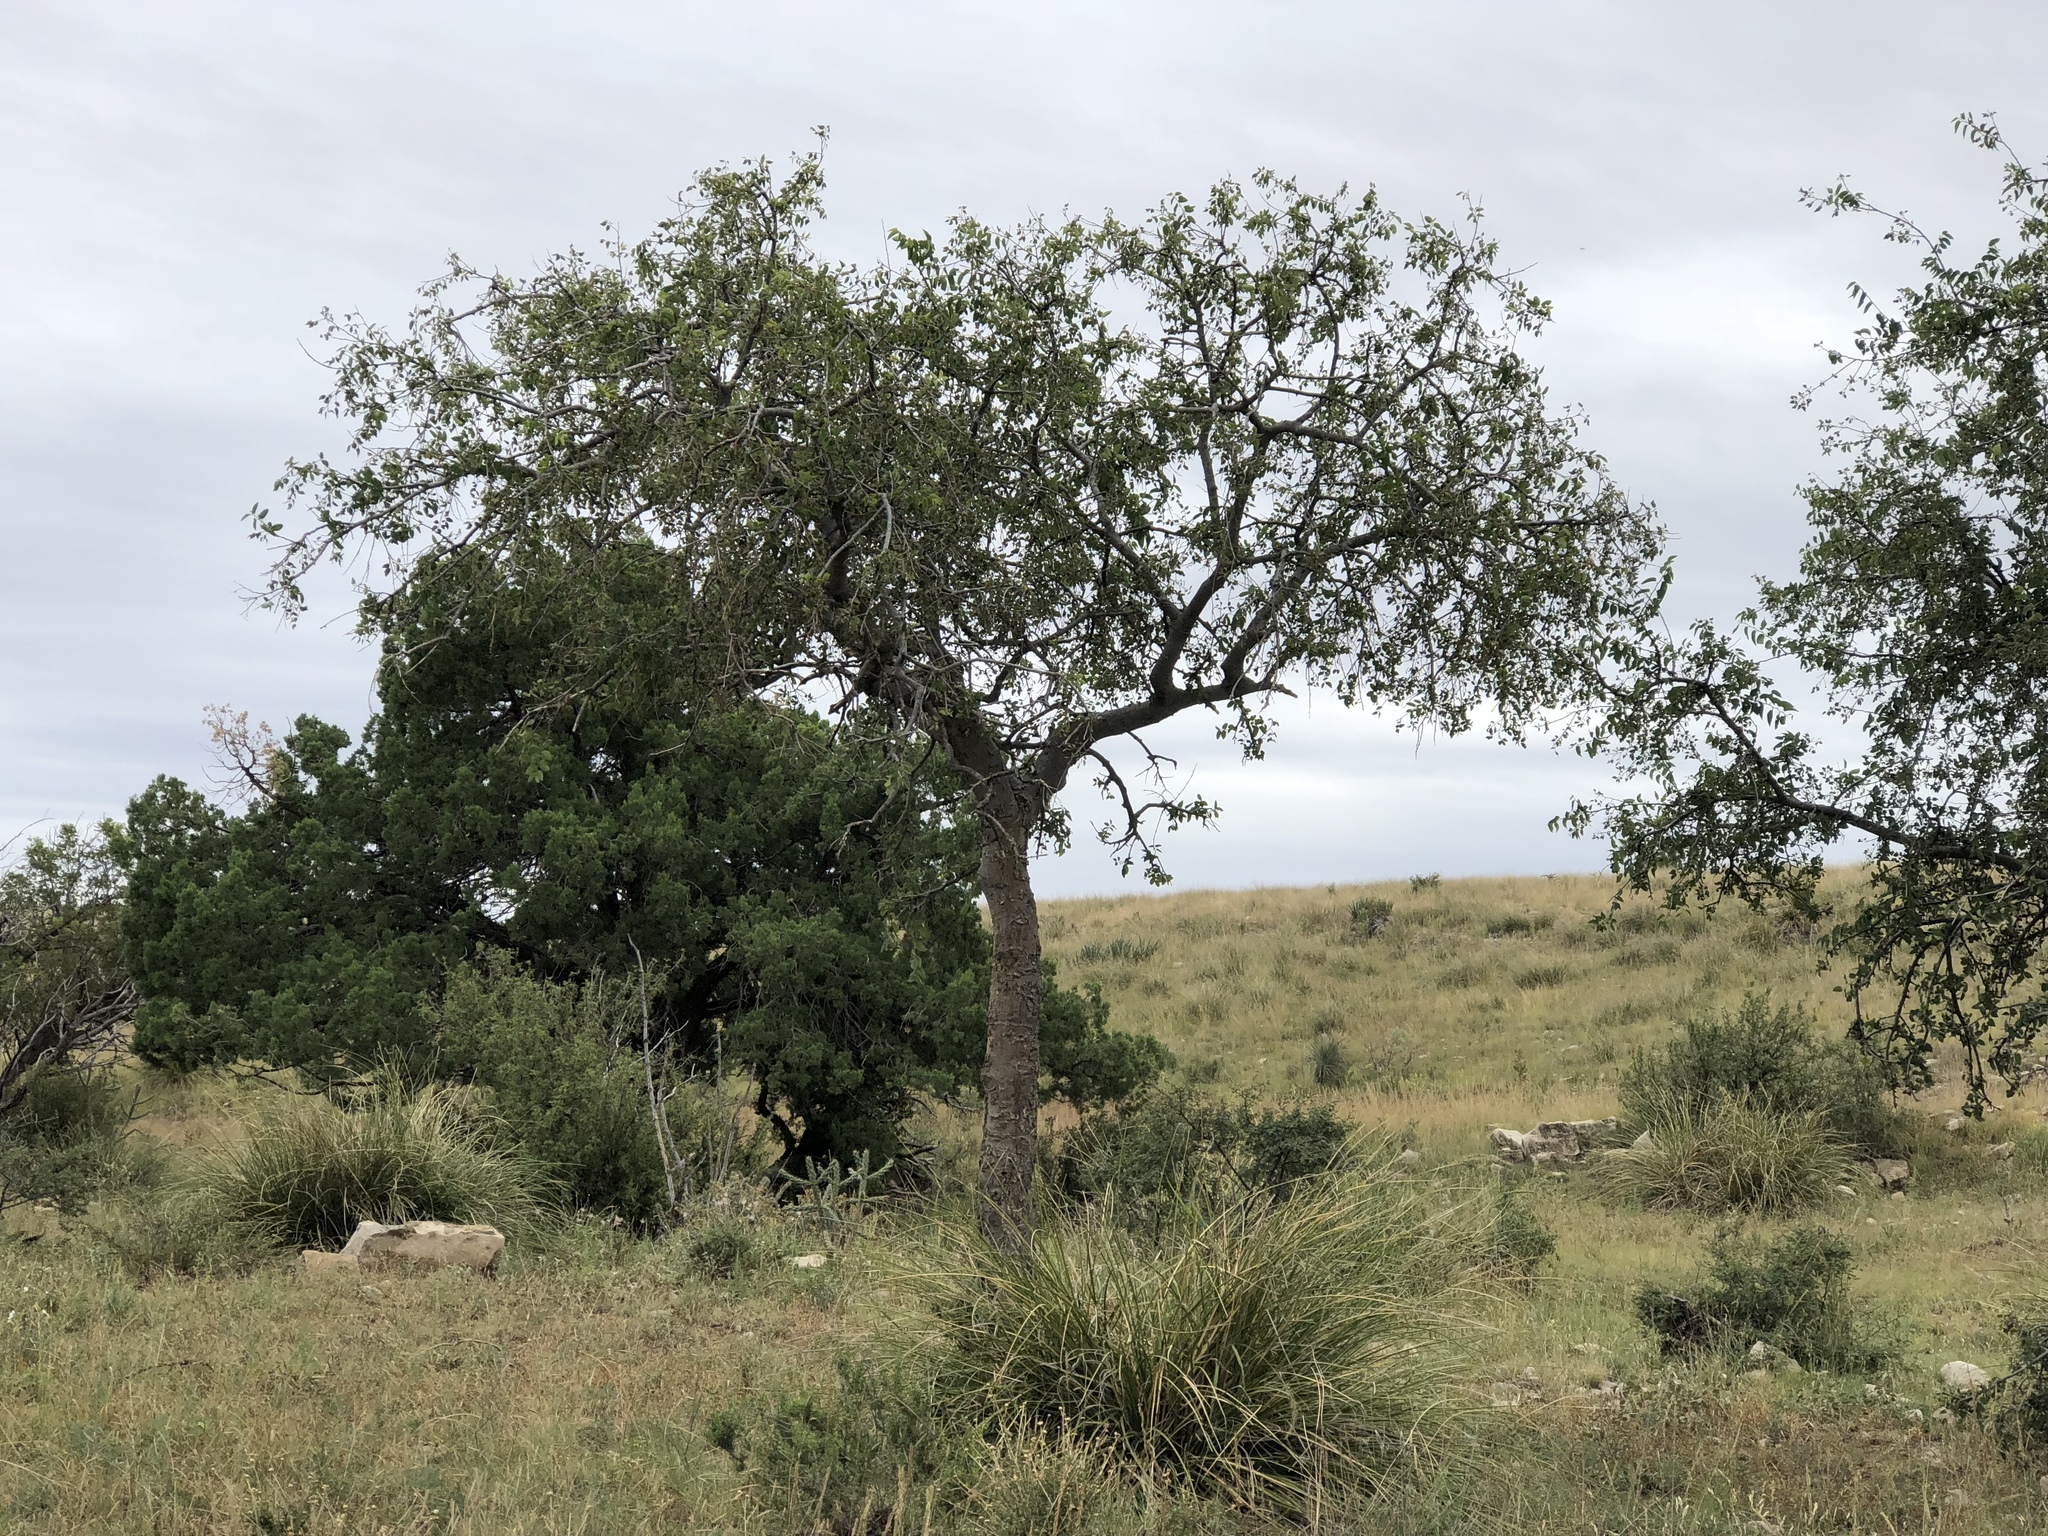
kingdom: Plantae
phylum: Tracheophyta
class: Magnoliopsida
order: Rosales
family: Cannabaceae
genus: Celtis
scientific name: Celtis reticulata
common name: Netleaf hackberry
